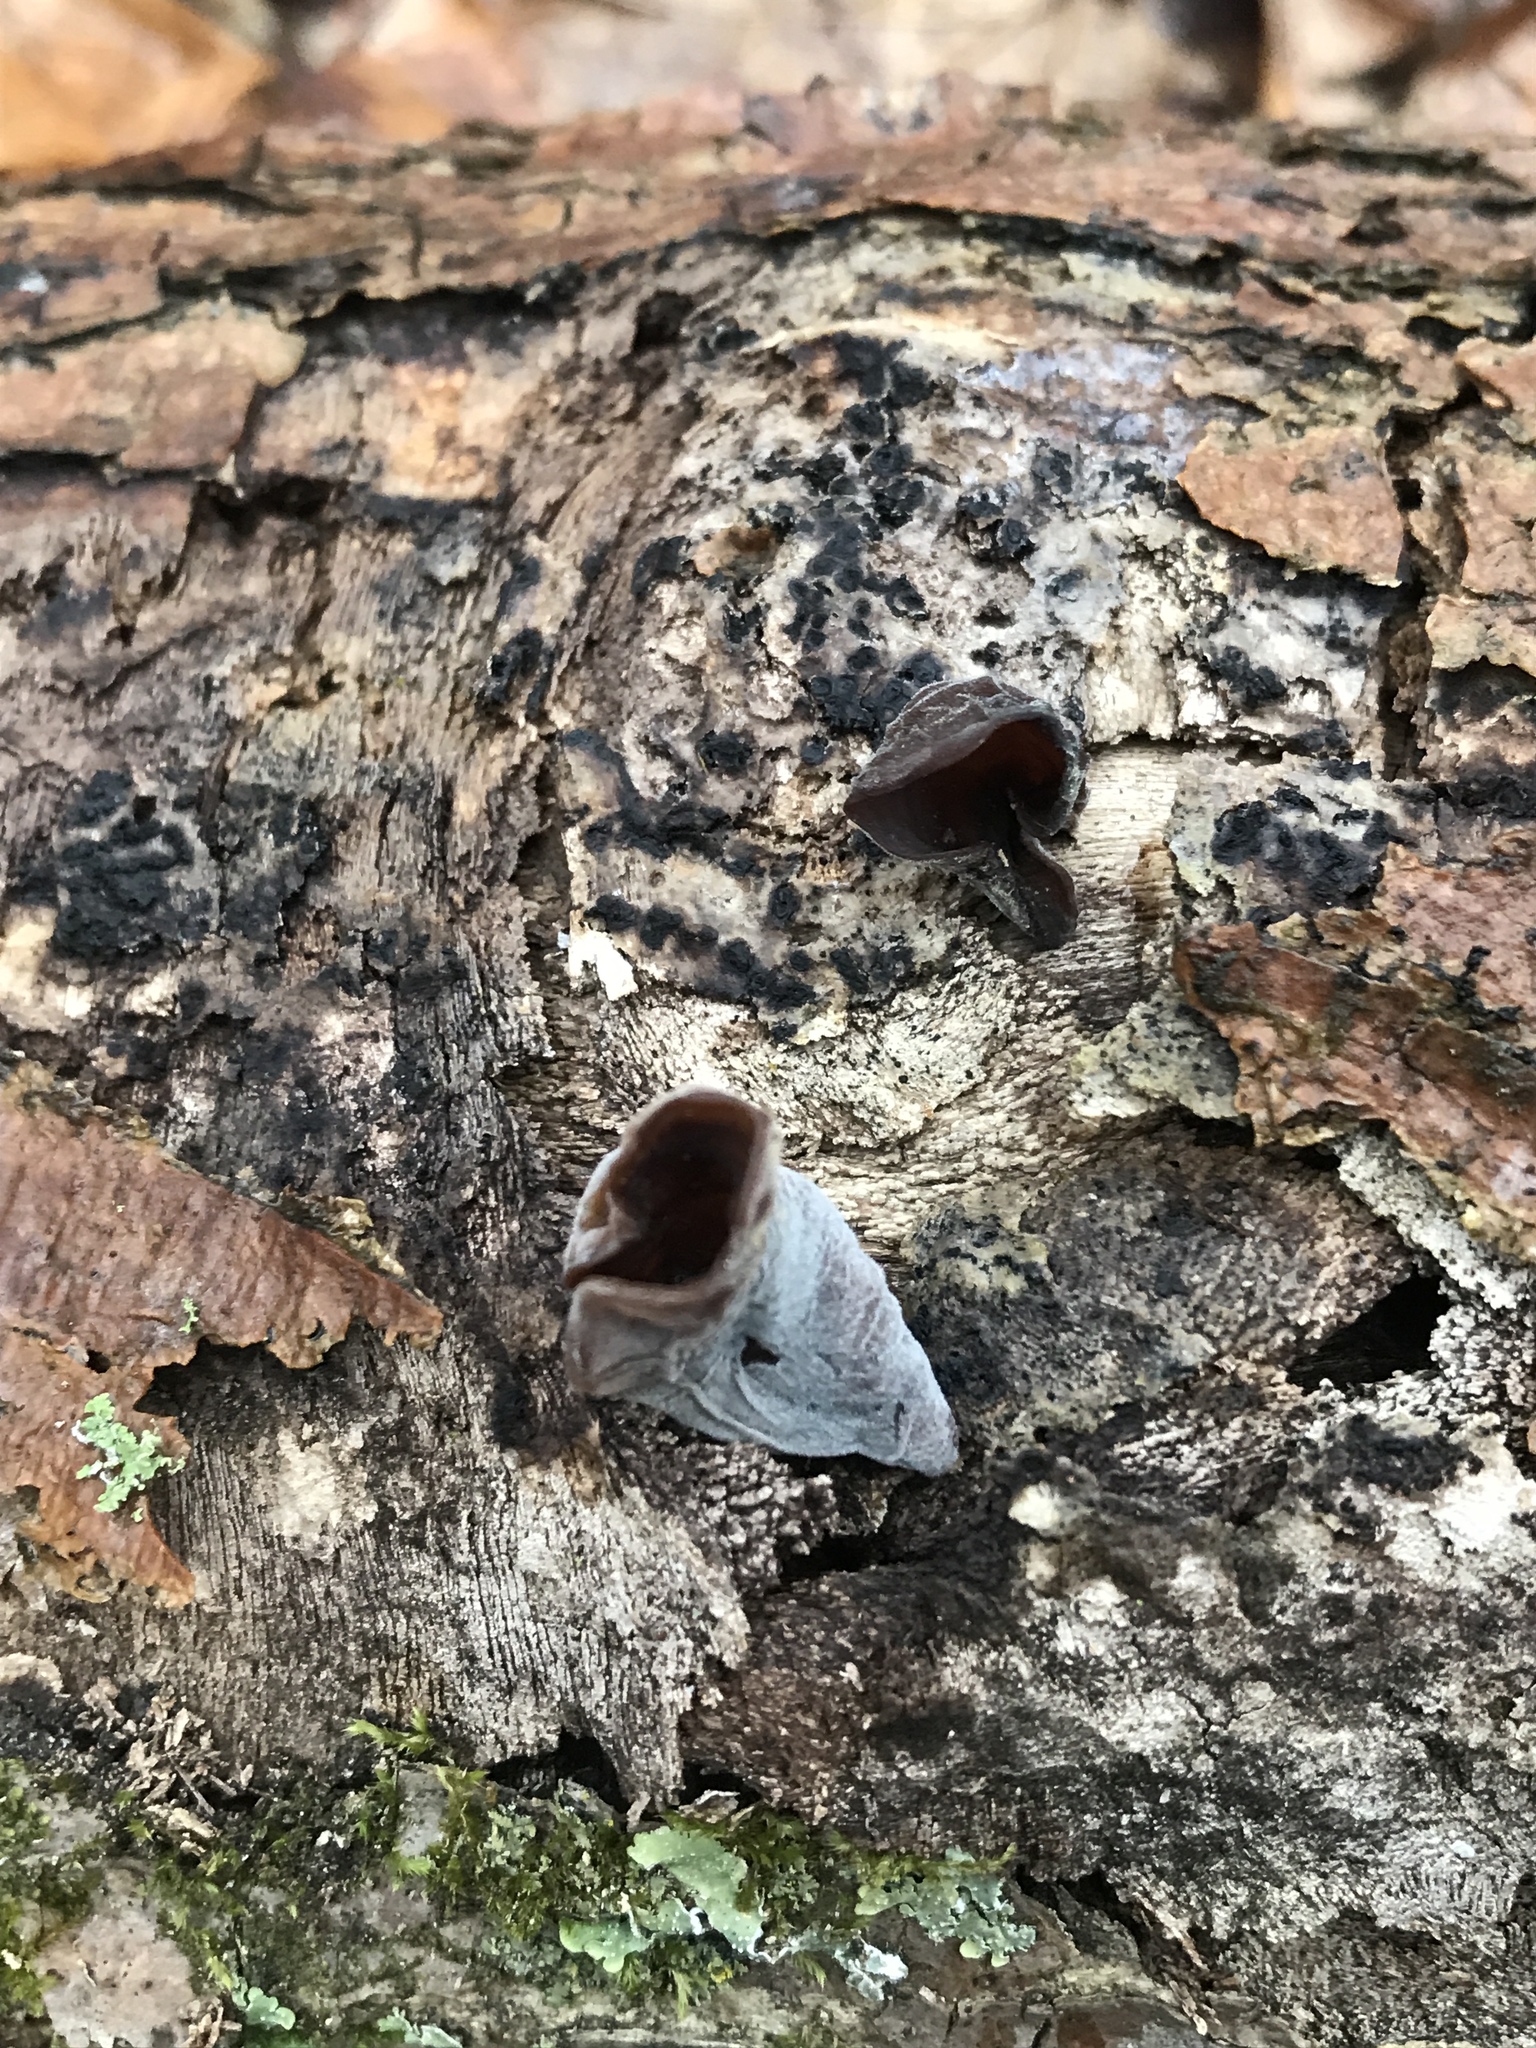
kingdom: Fungi
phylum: Basidiomycota
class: Agaricomycetes
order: Auriculariales
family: Auriculariaceae
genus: Auricularia
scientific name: Auricularia angiospermarum
